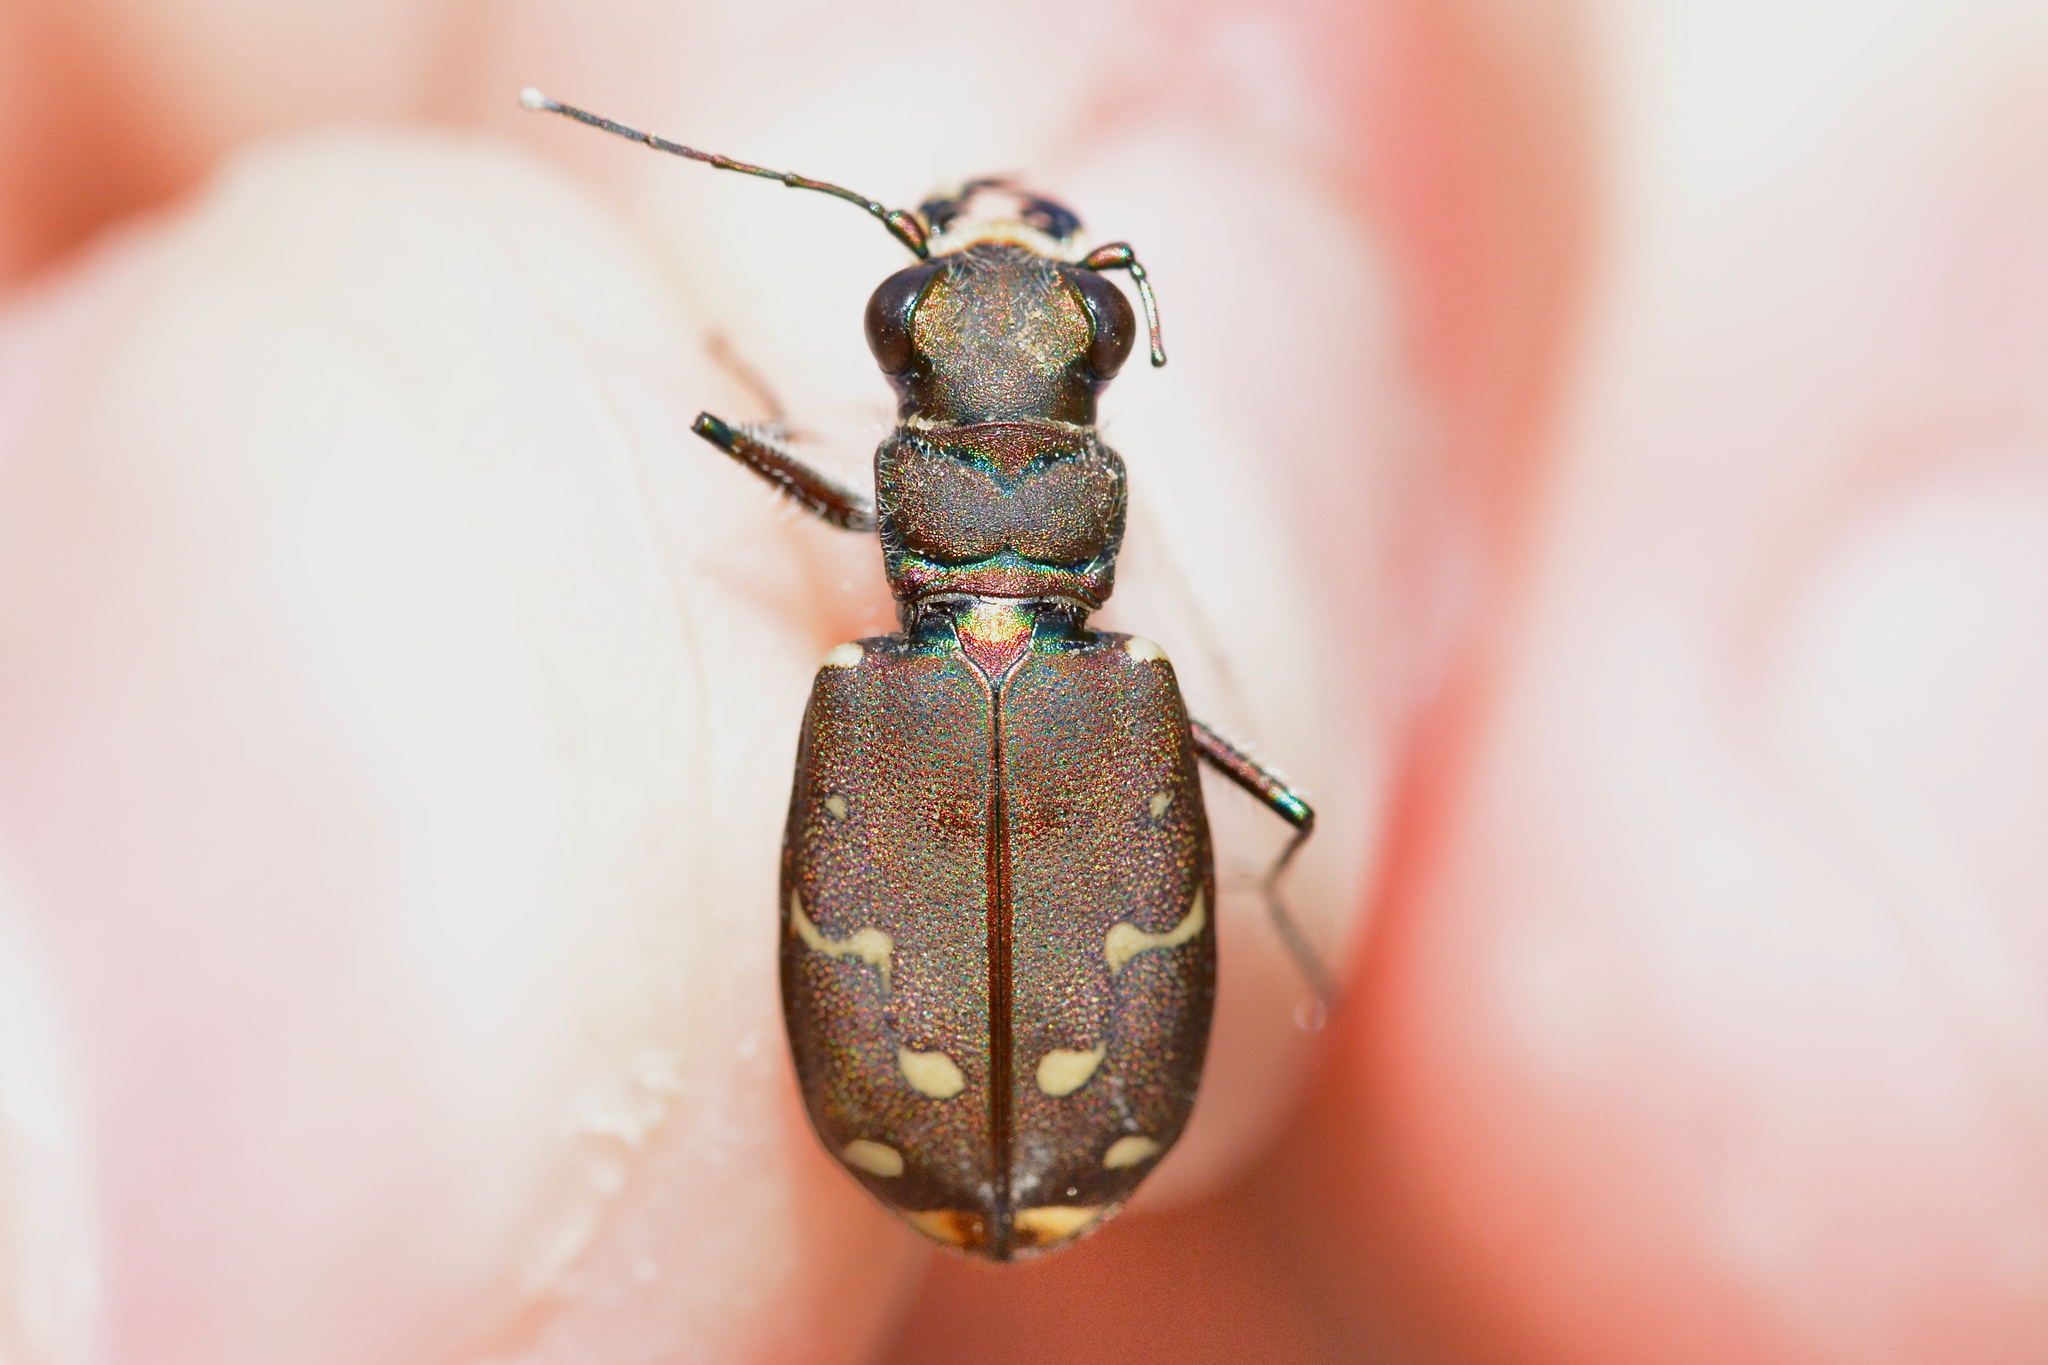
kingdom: Animalia
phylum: Arthropoda
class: Insecta
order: Coleoptera
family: Carabidae
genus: Cicindela
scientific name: Cicindela duodecimguttata
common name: Twelve-spotted tiger beetle
